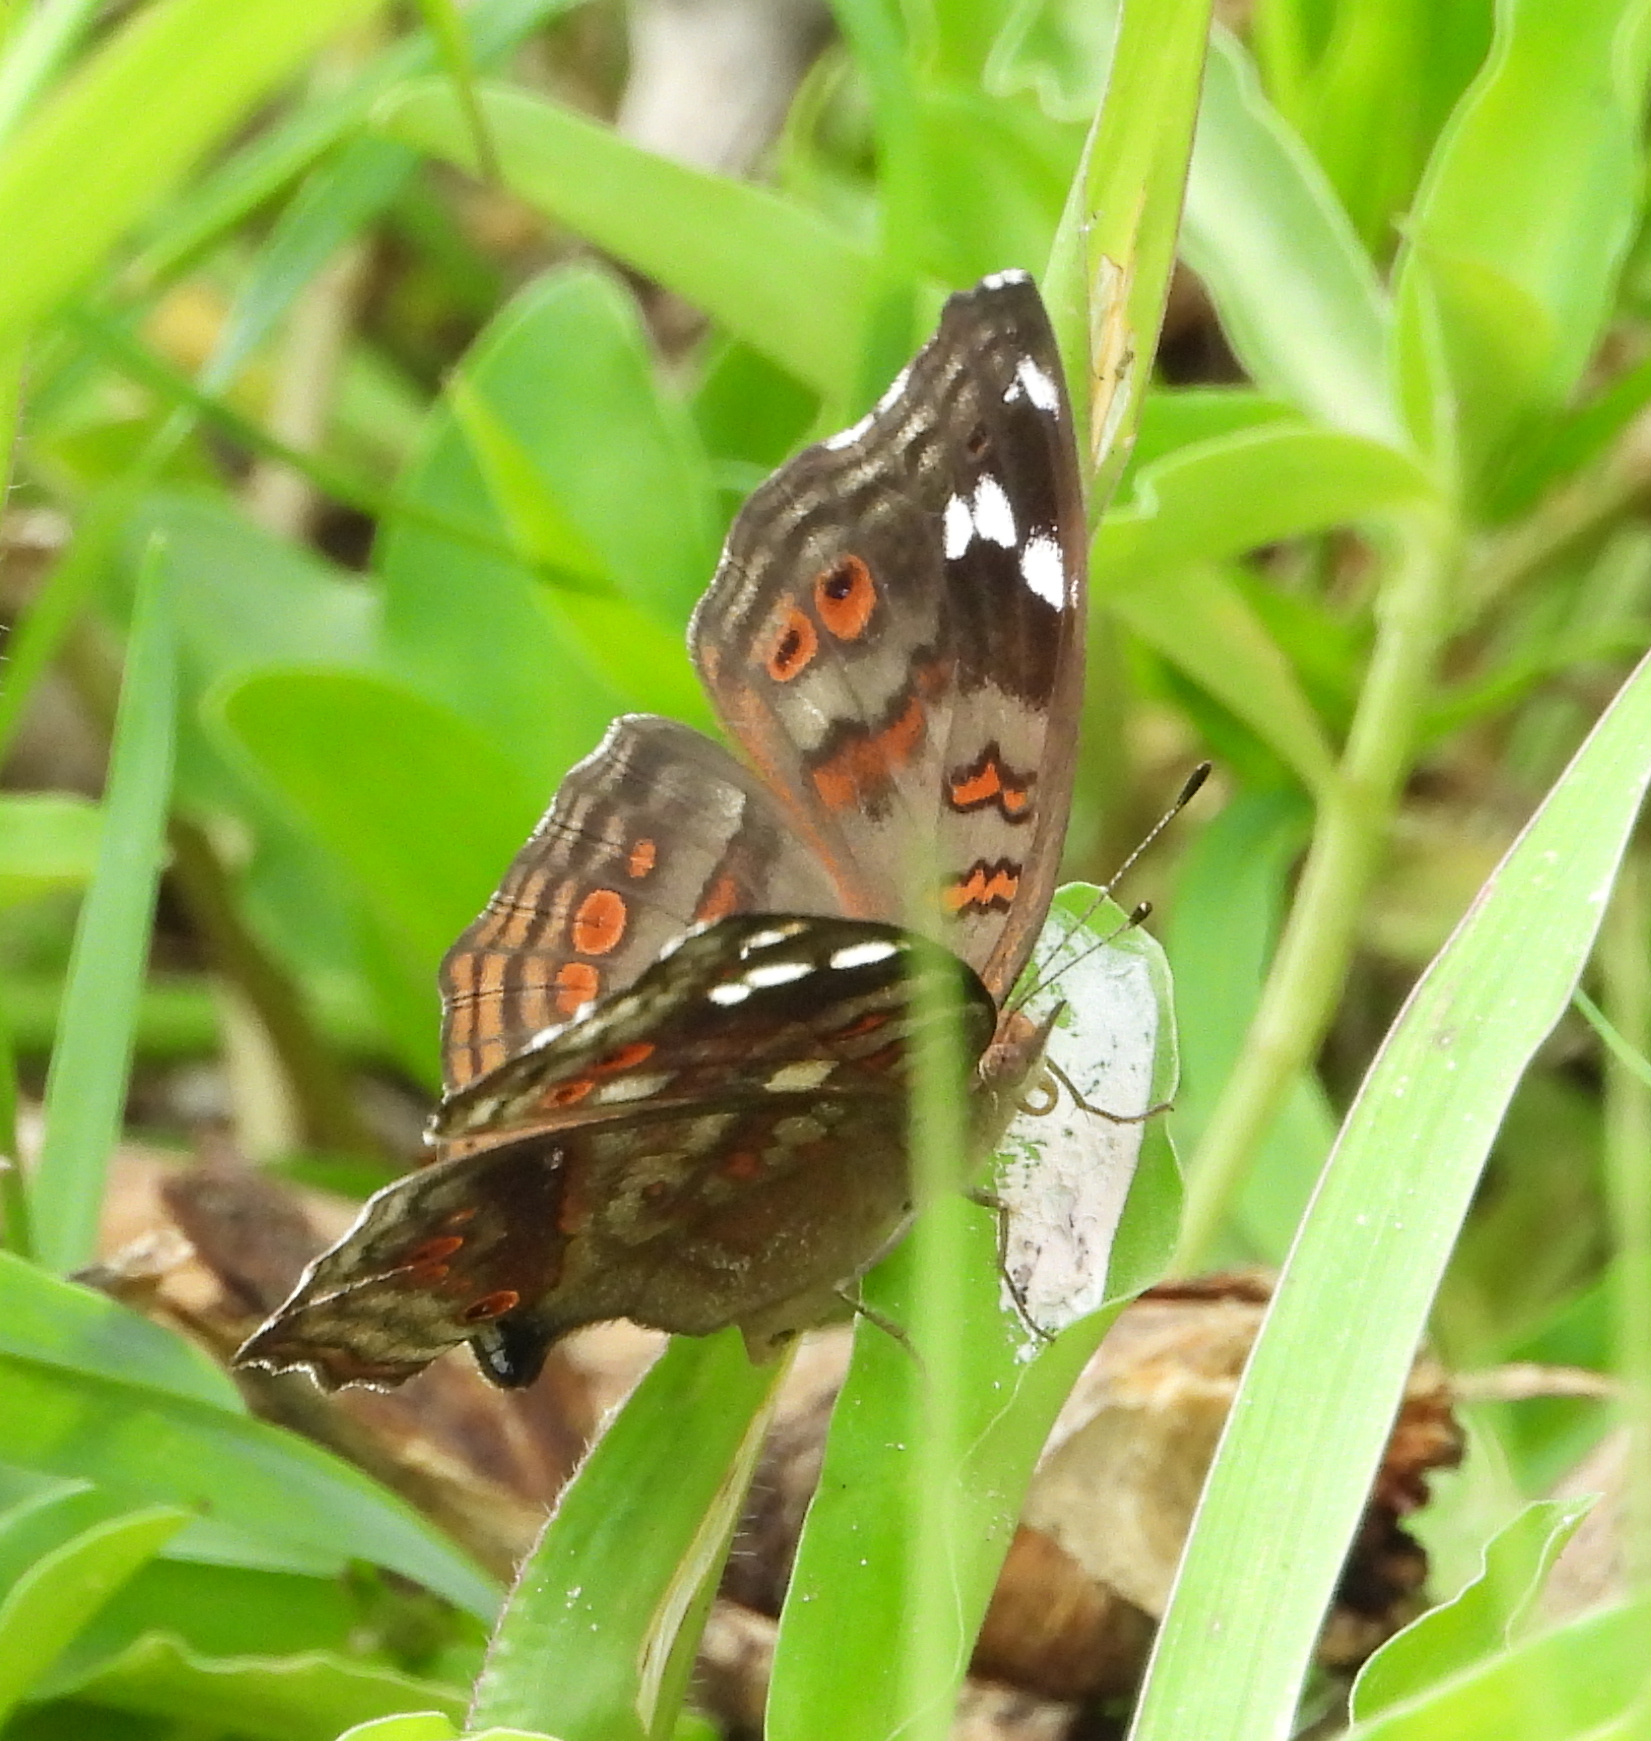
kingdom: Animalia
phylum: Arthropoda
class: Insecta
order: Lepidoptera
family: Nymphalidae
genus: Junonia
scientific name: Junonia natalica
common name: Brown pansy
